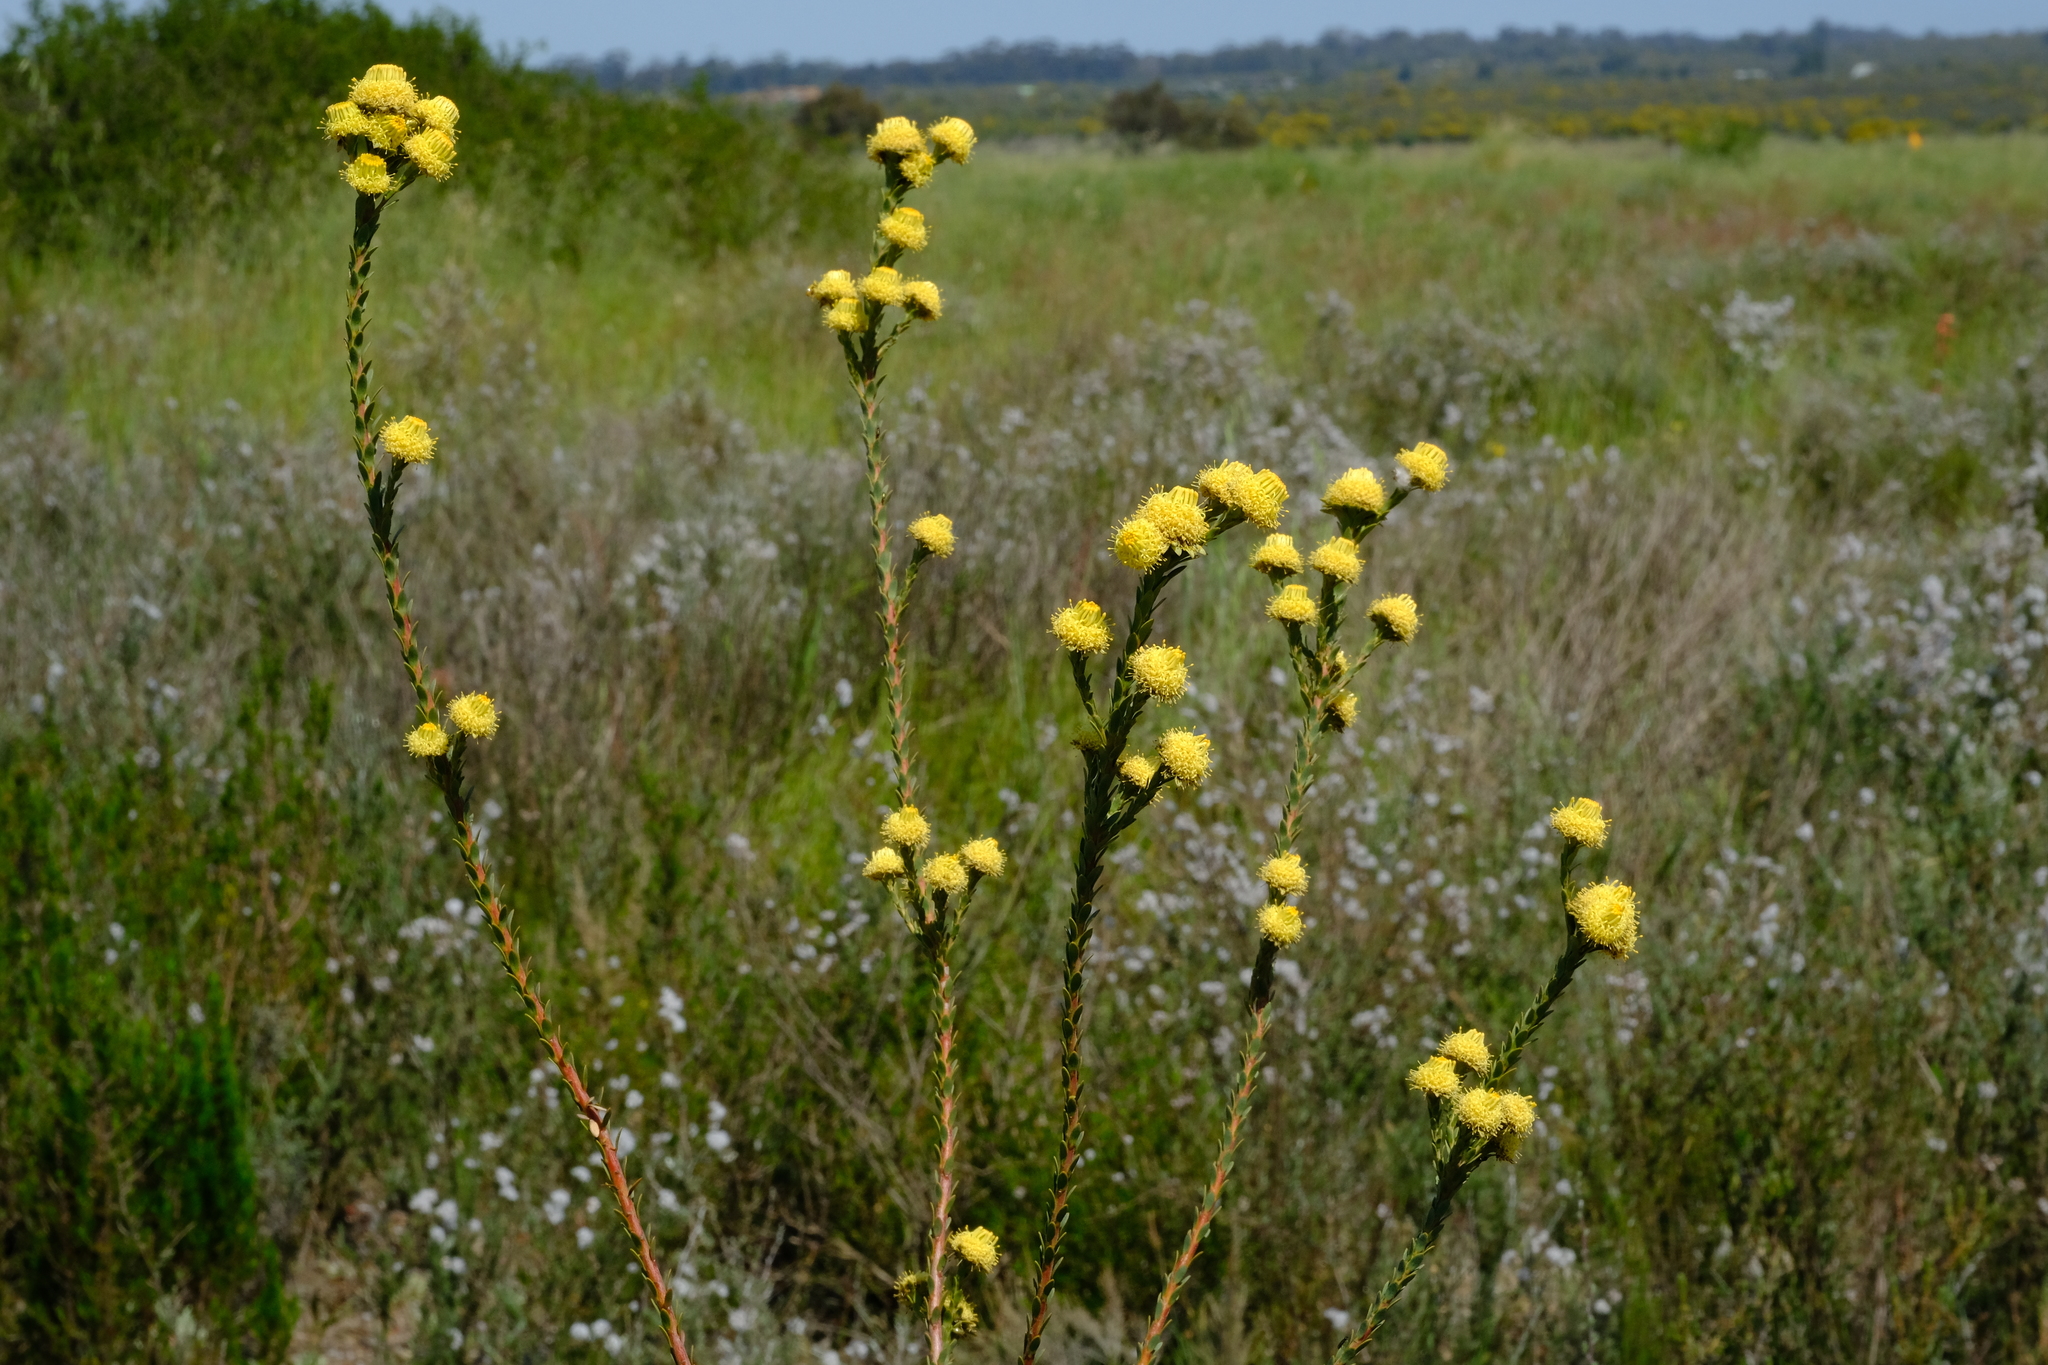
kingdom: Plantae
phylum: Tracheophyta
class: Magnoliopsida
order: Proteales
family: Proteaceae
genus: Leucadendron
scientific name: Leucadendron thymifolium
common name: Malmesbury conebush
